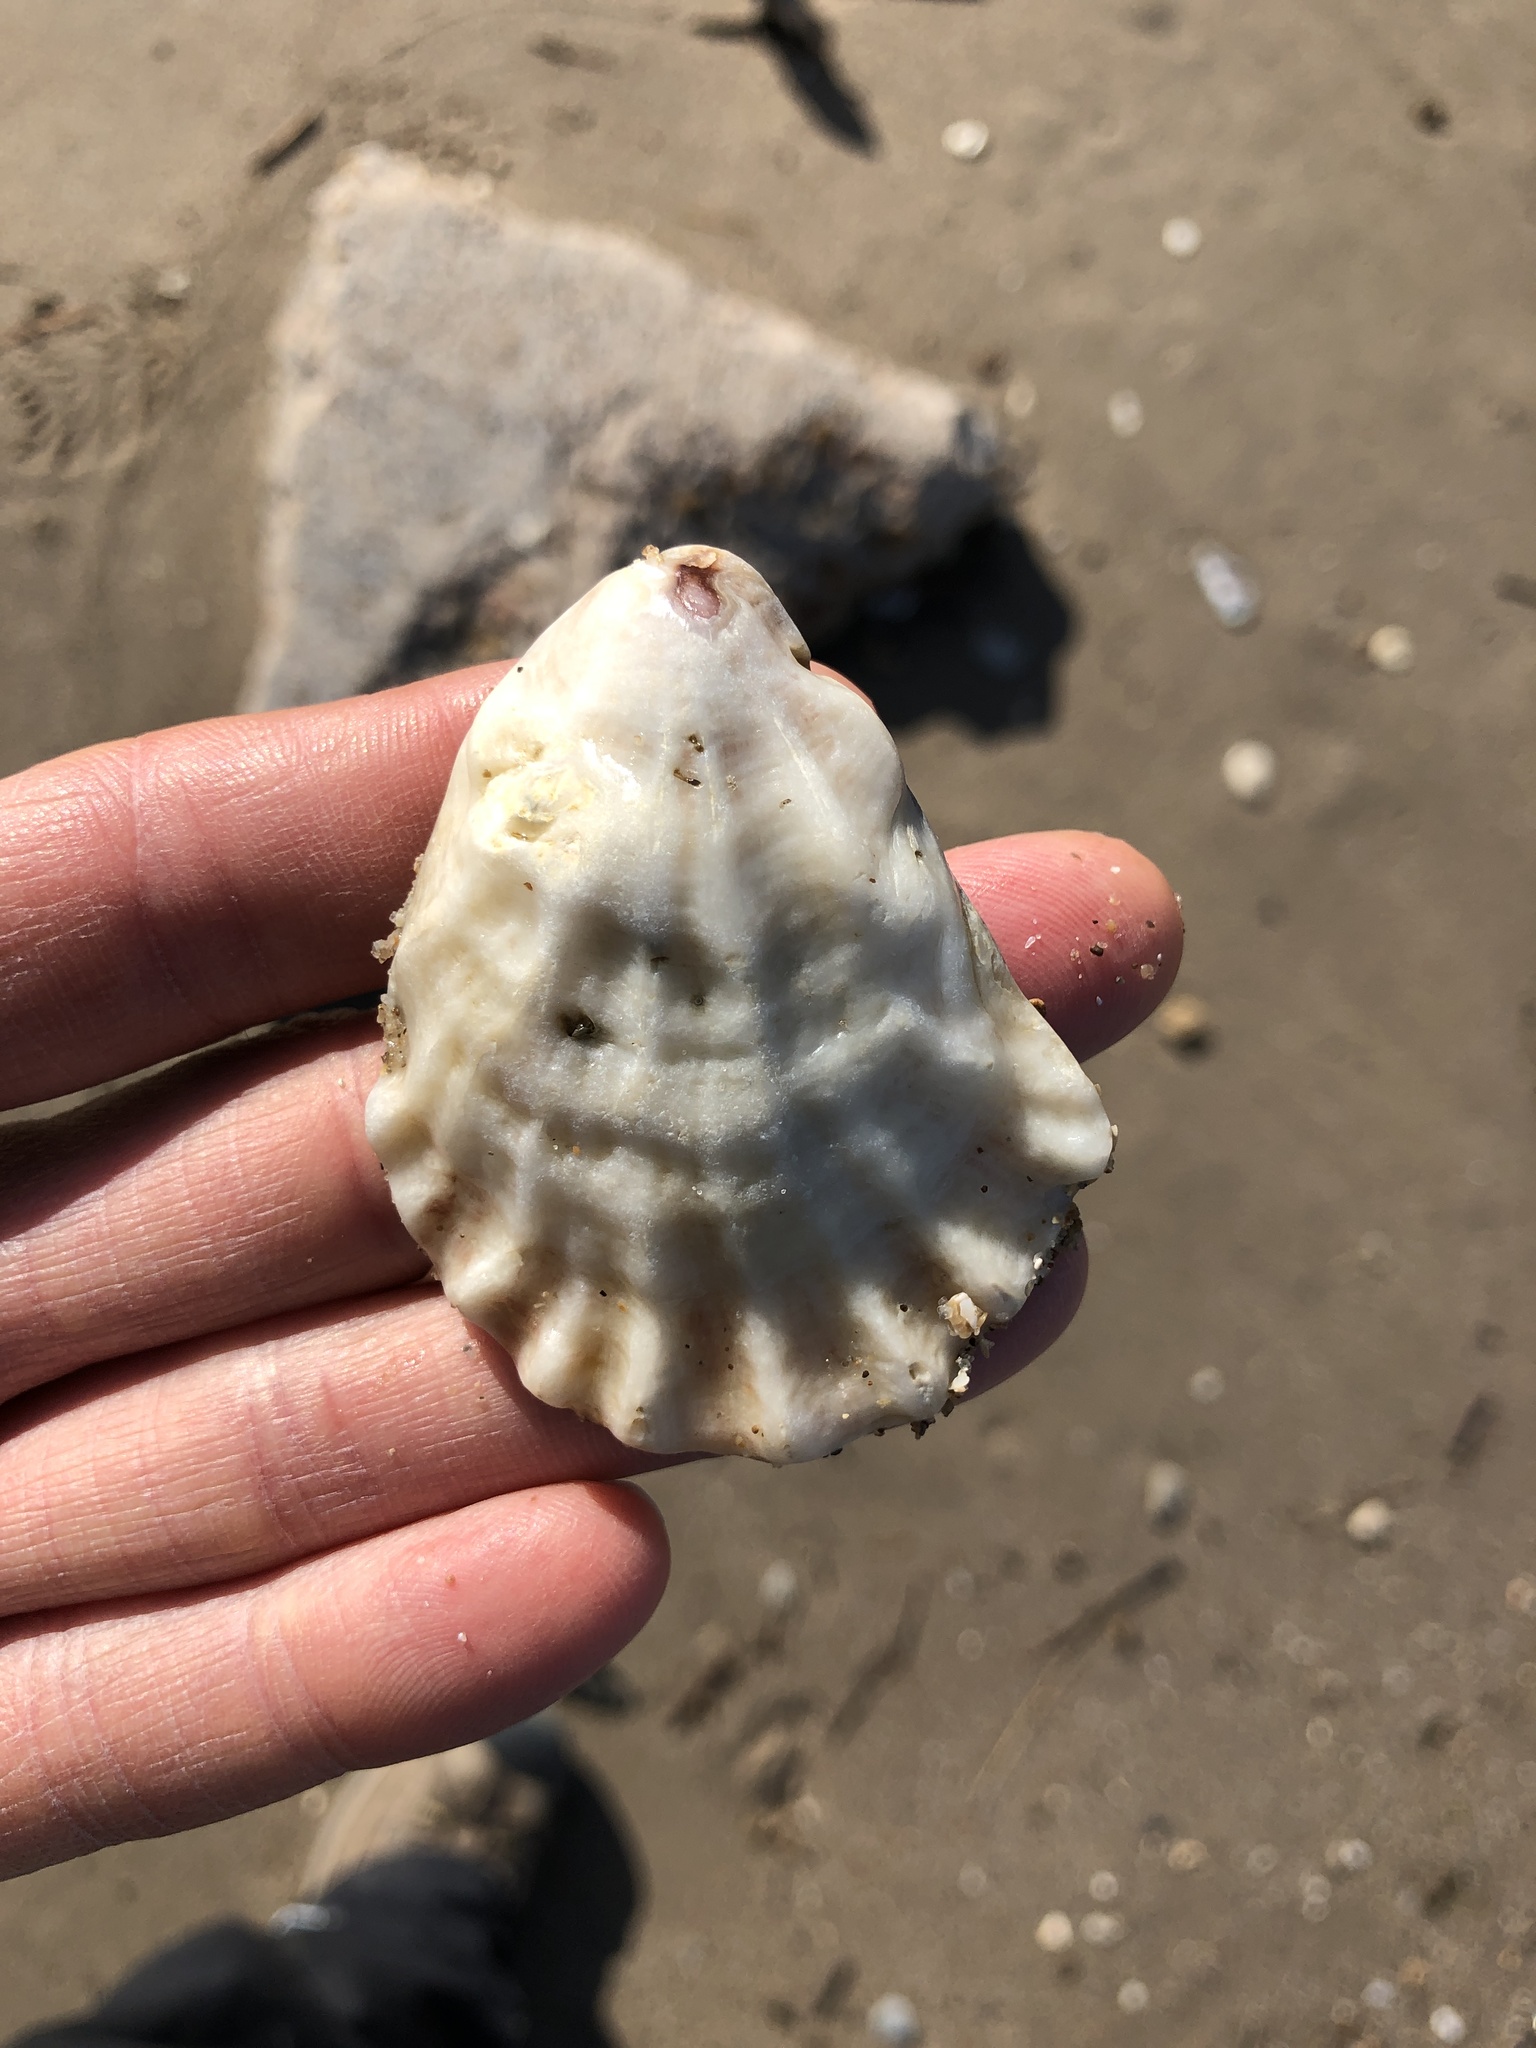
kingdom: Animalia
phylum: Mollusca
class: Bivalvia
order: Ostreida
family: Ostreidae
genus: Crassostrea
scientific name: Crassostrea virginica
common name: American oyster
